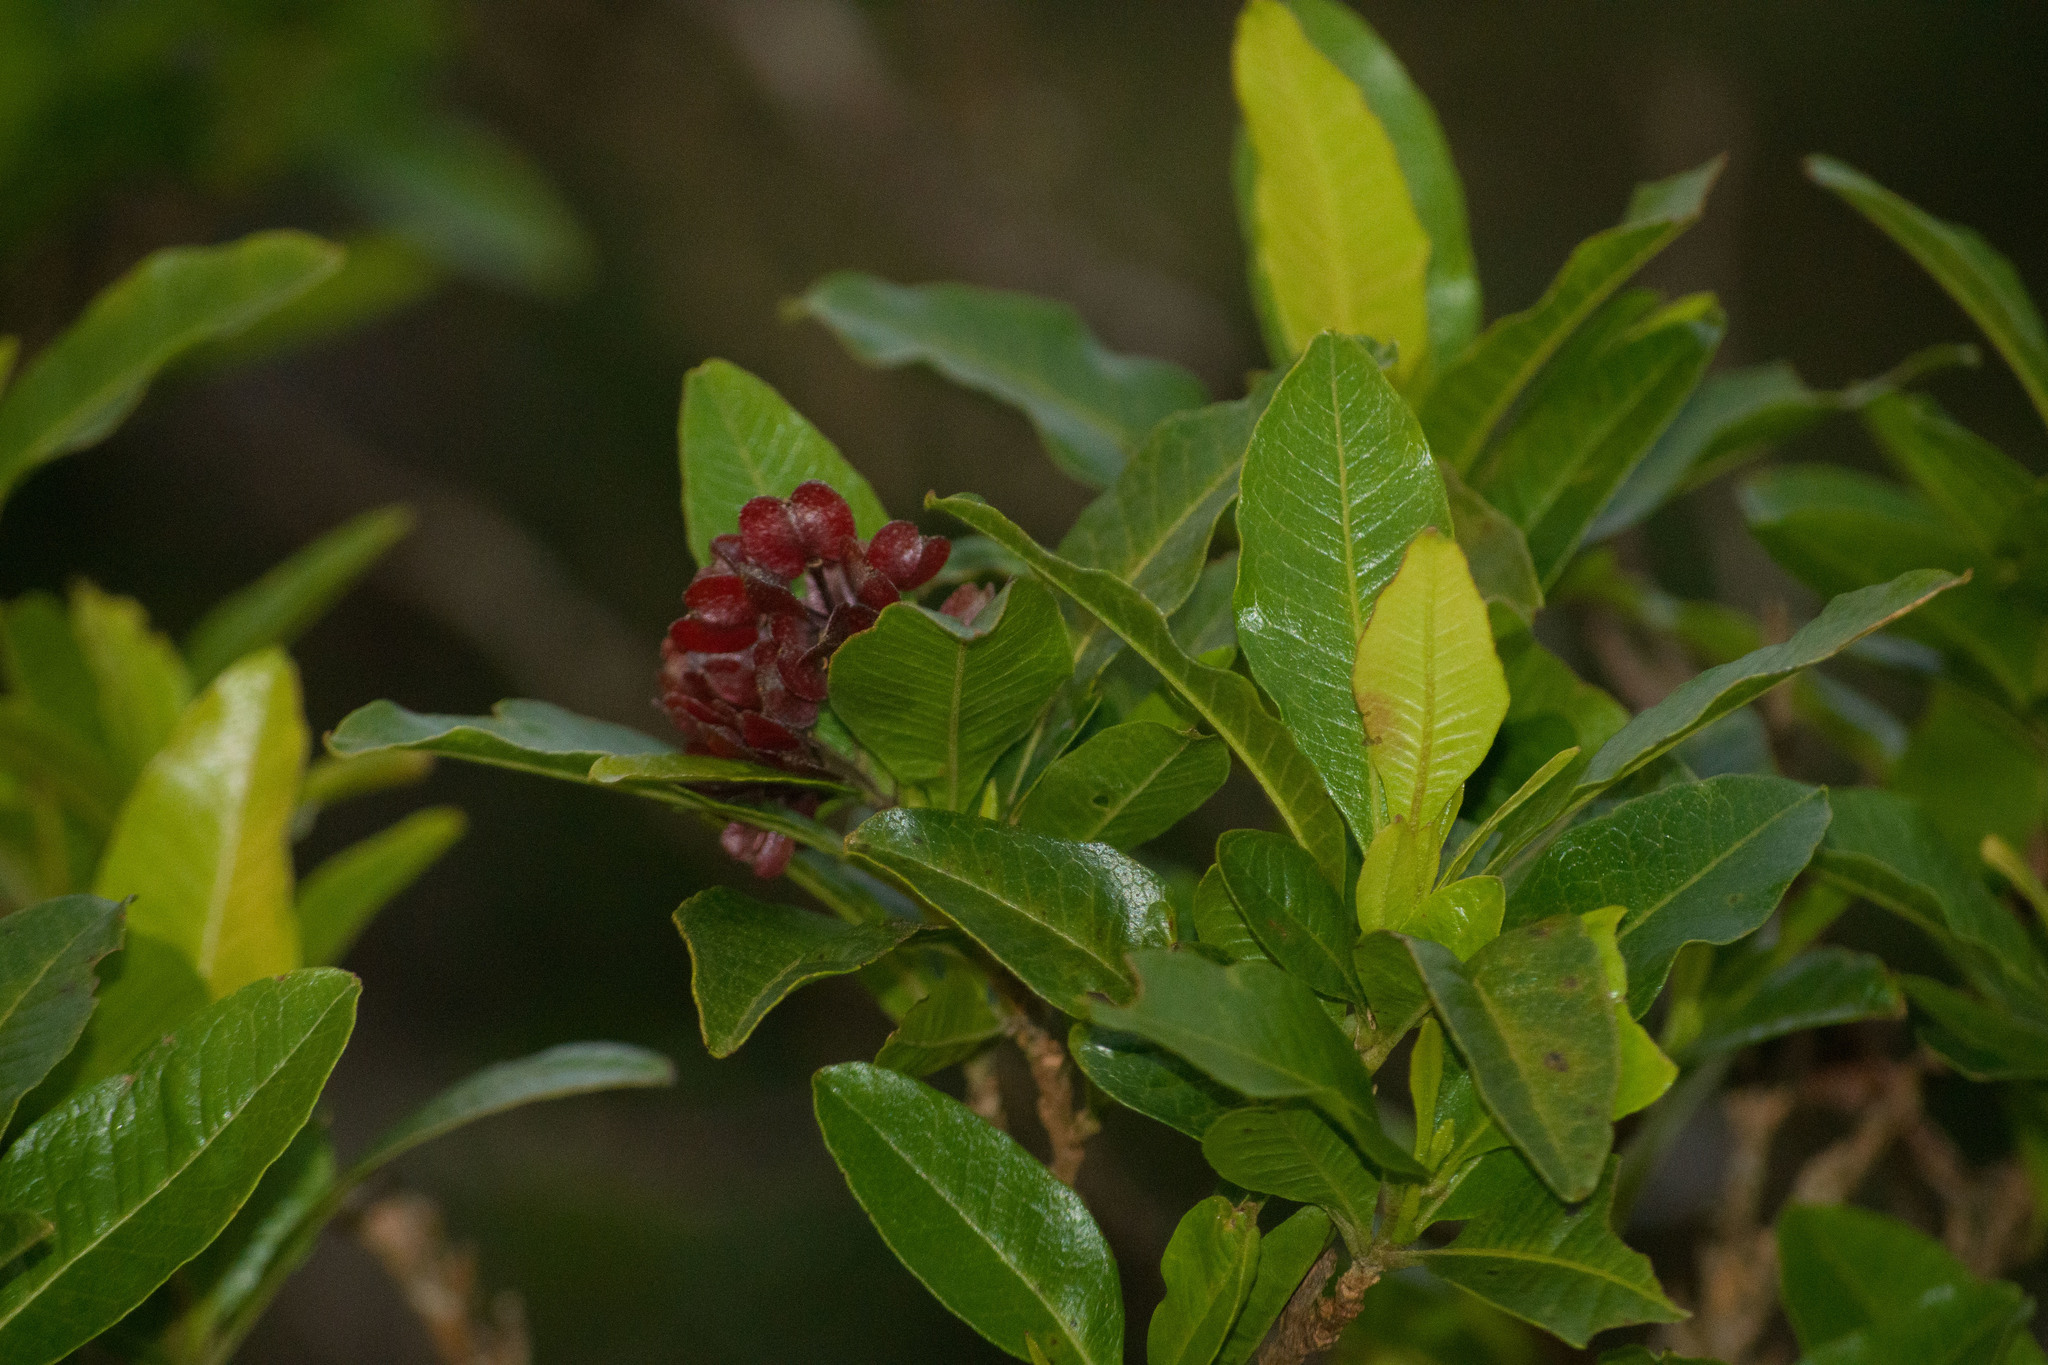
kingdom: Plantae
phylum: Tracheophyta
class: Magnoliopsida
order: Sapindales
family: Sapindaceae
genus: Dodonaea
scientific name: Dodonaea viscosa
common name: Hopbush
